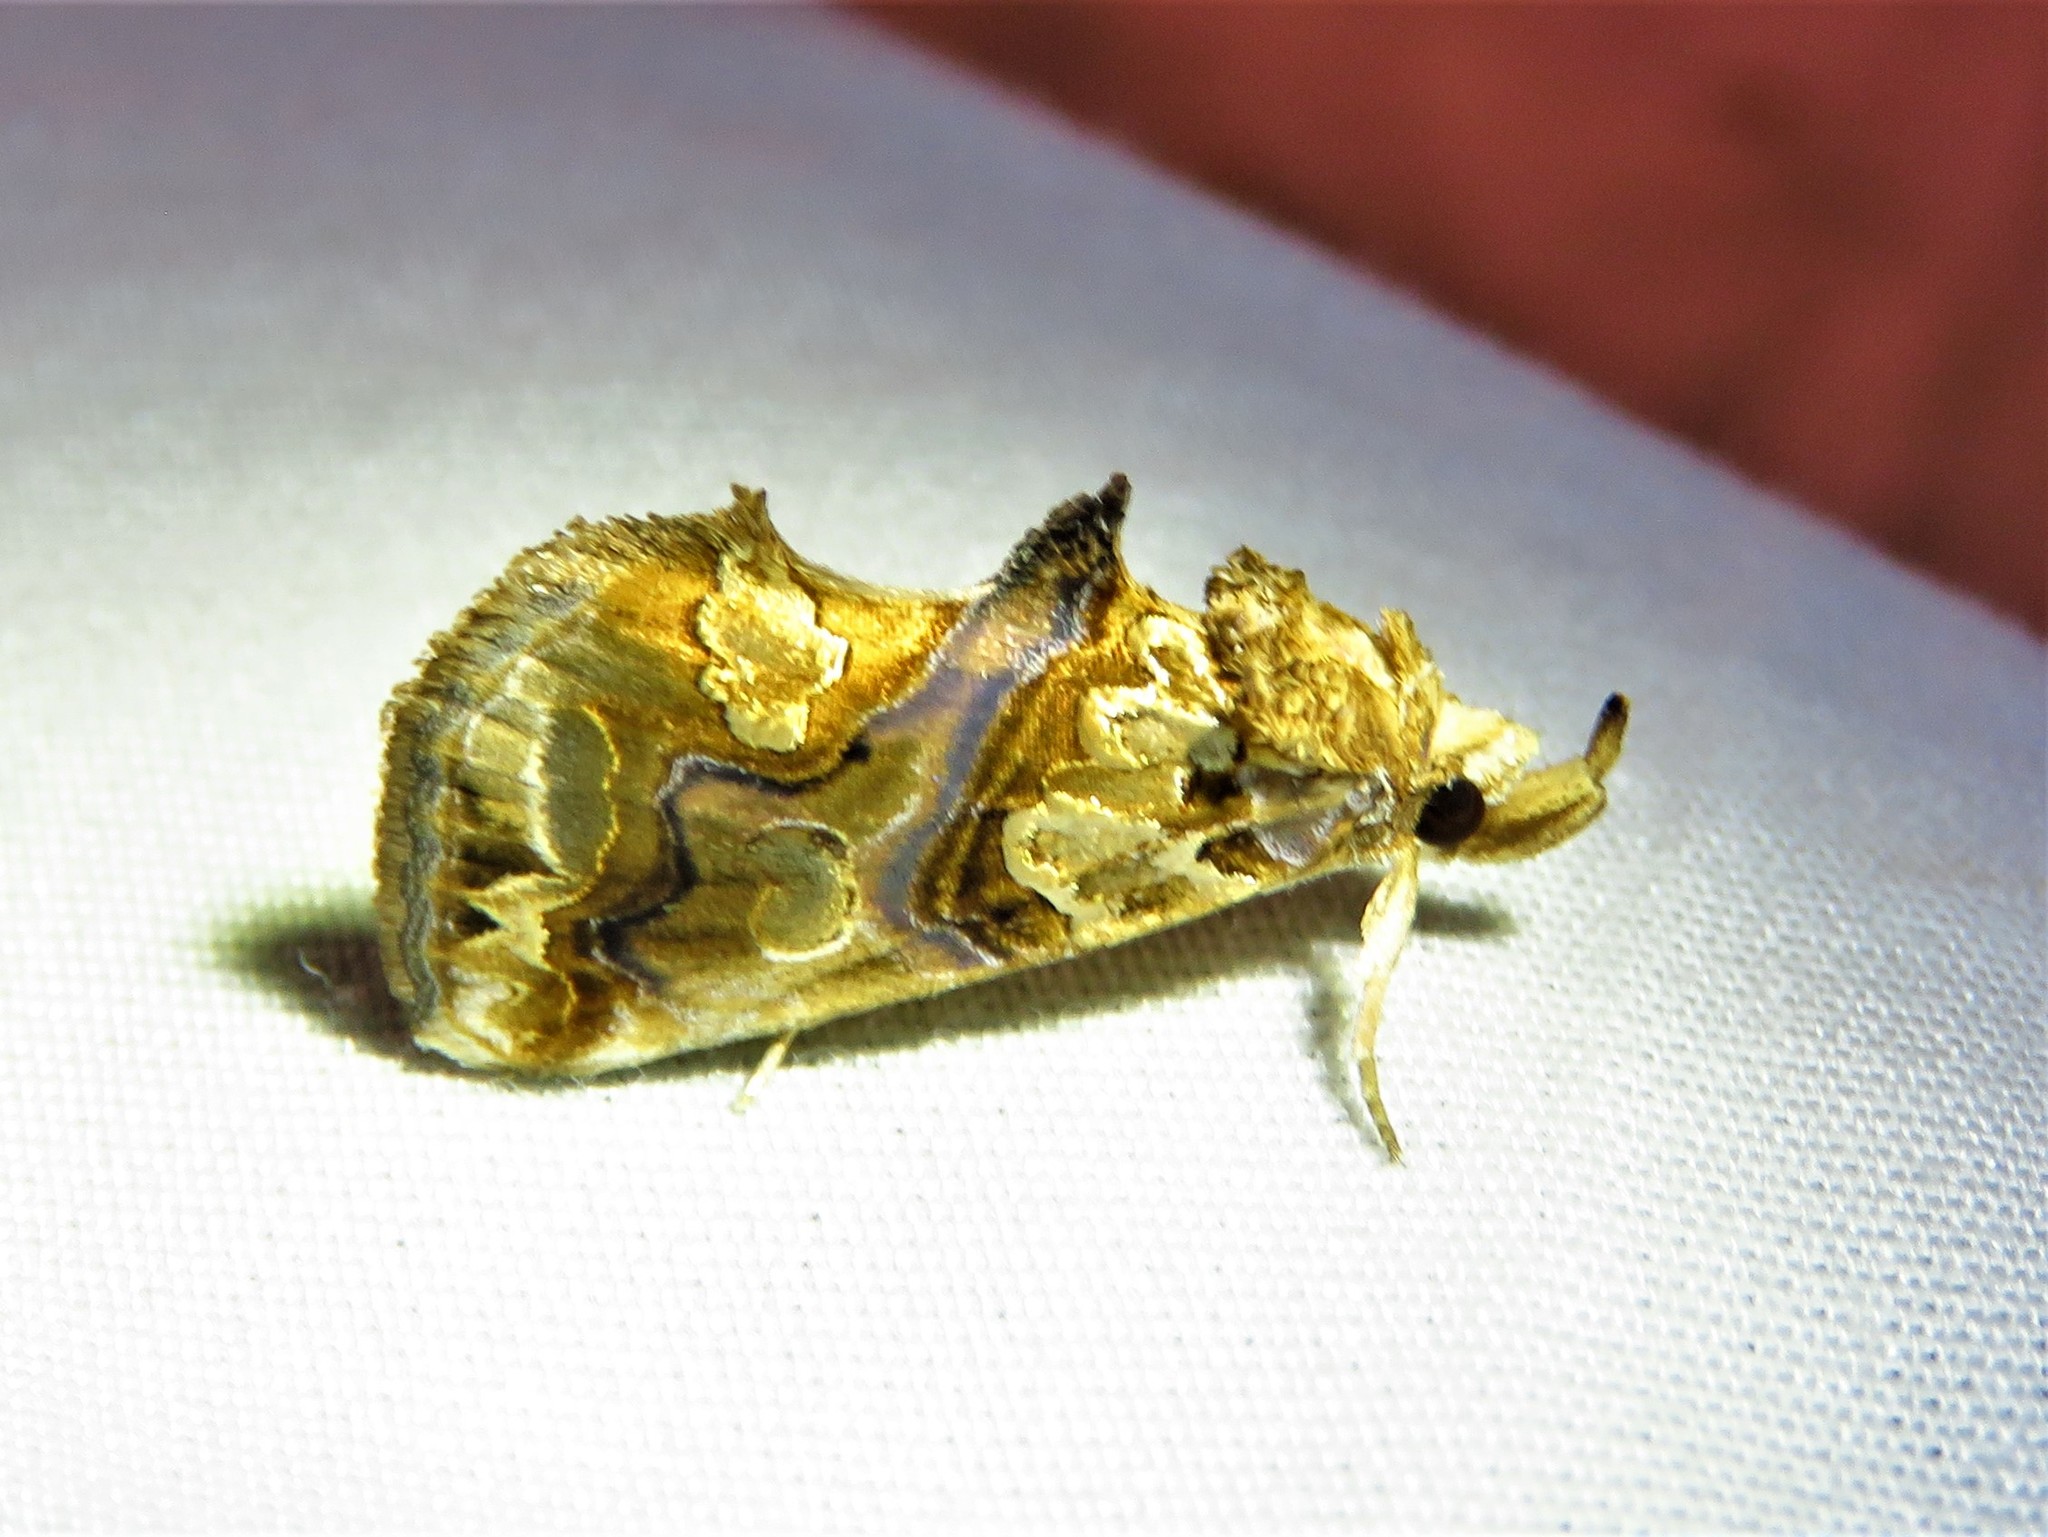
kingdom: Animalia
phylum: Arthropoda
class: Insecta
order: Lepidoptera
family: Erebidae
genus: Plusiodonta
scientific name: Plusiodonta compressipalpis
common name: Moonseed moth
